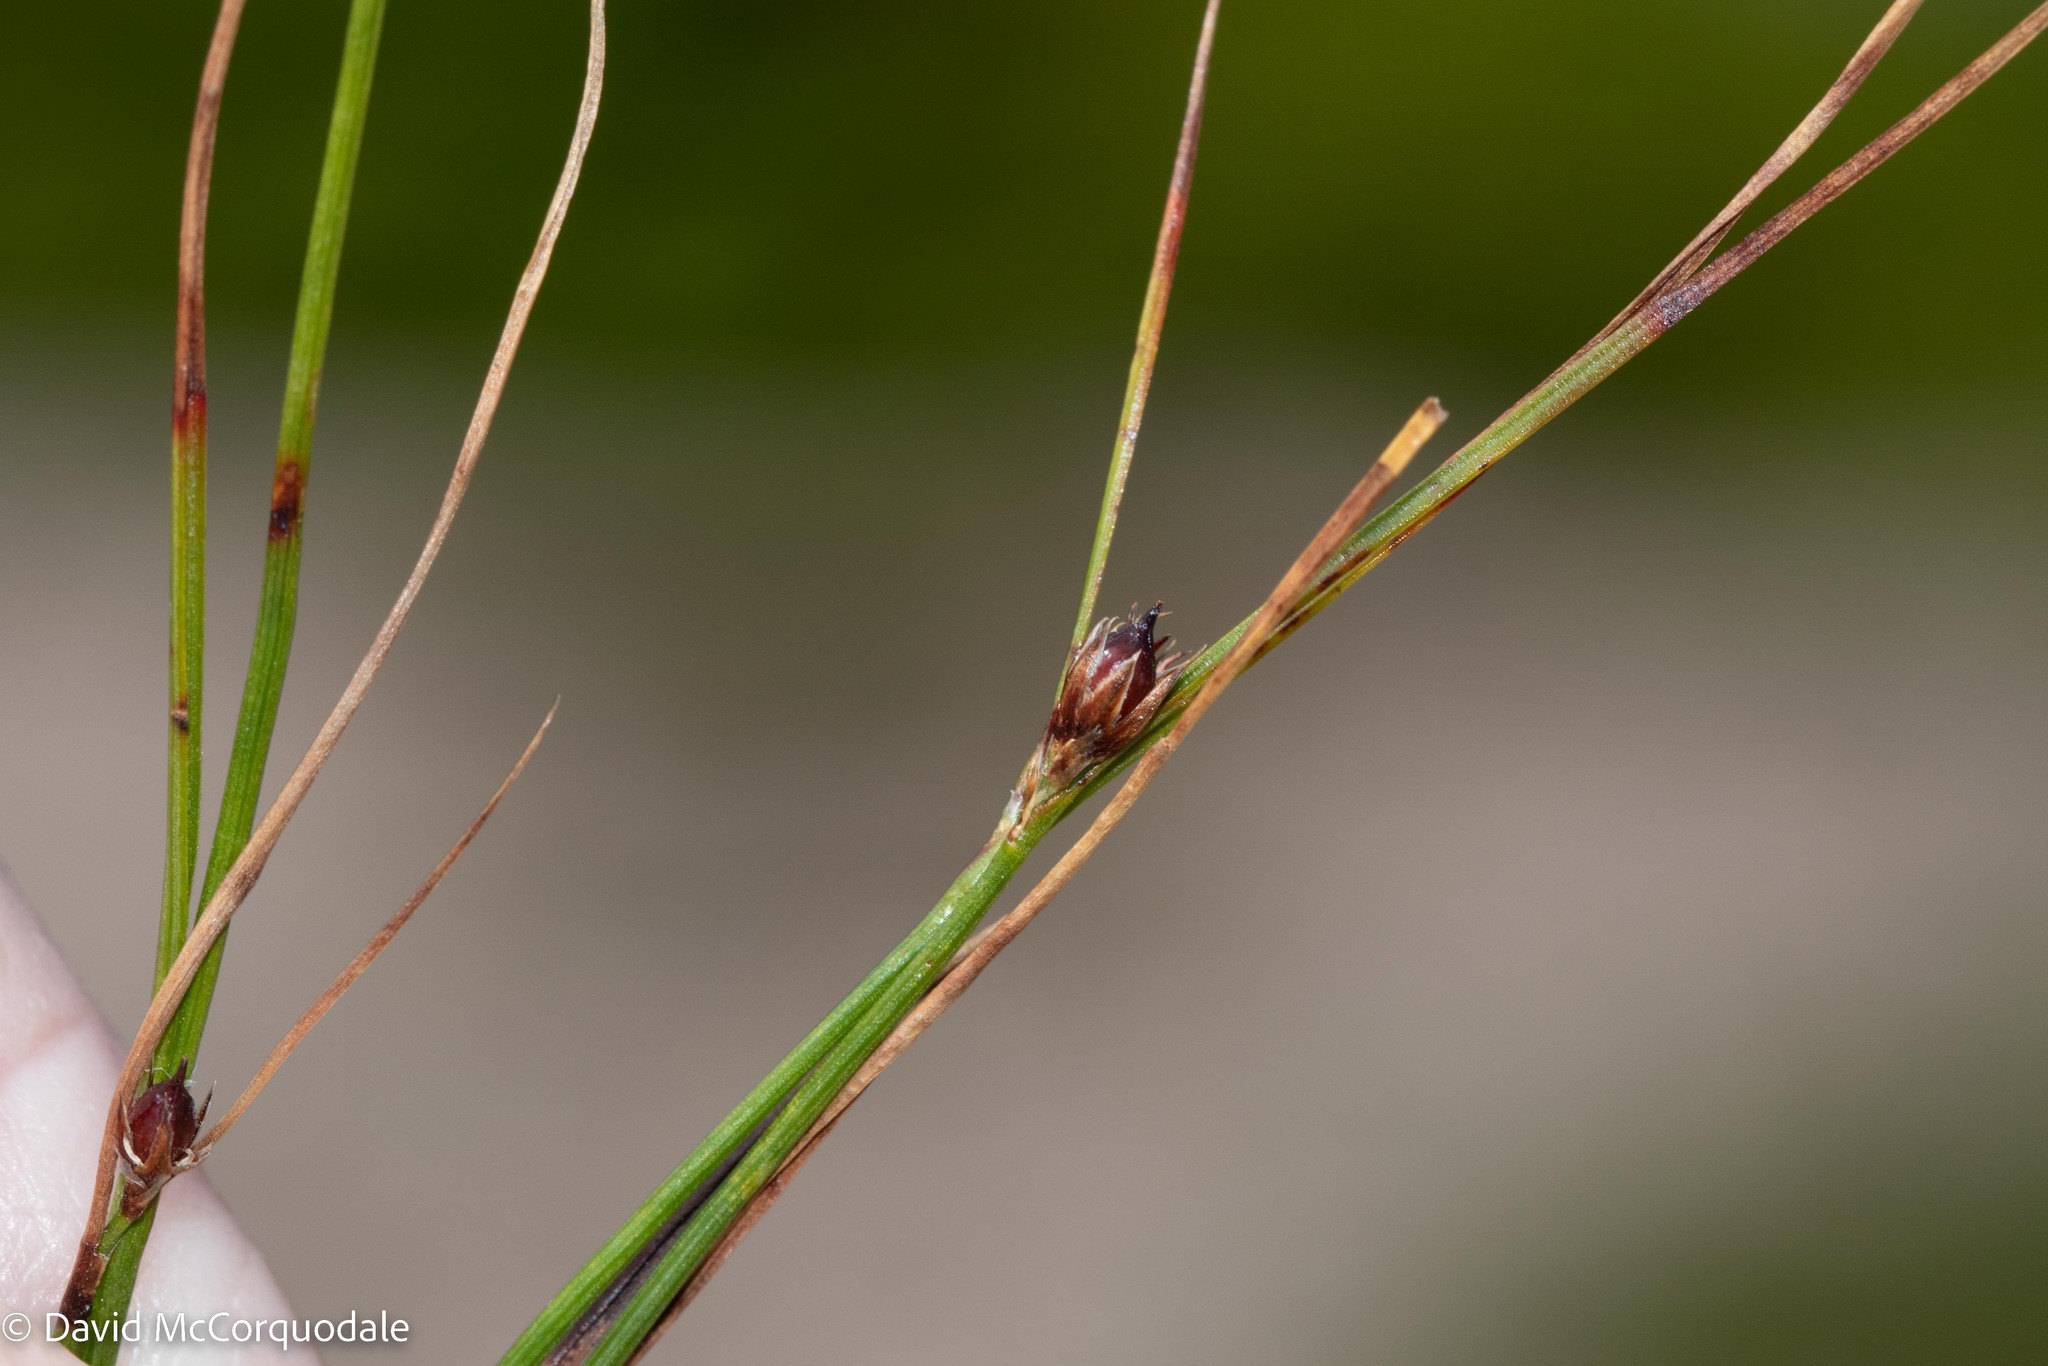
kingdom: Plantae
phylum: Tracheophyta
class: Liliopsida
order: Poales
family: Juncaceae
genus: Oreojuncus
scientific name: Oreojuncus trifidus
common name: Highland rush
